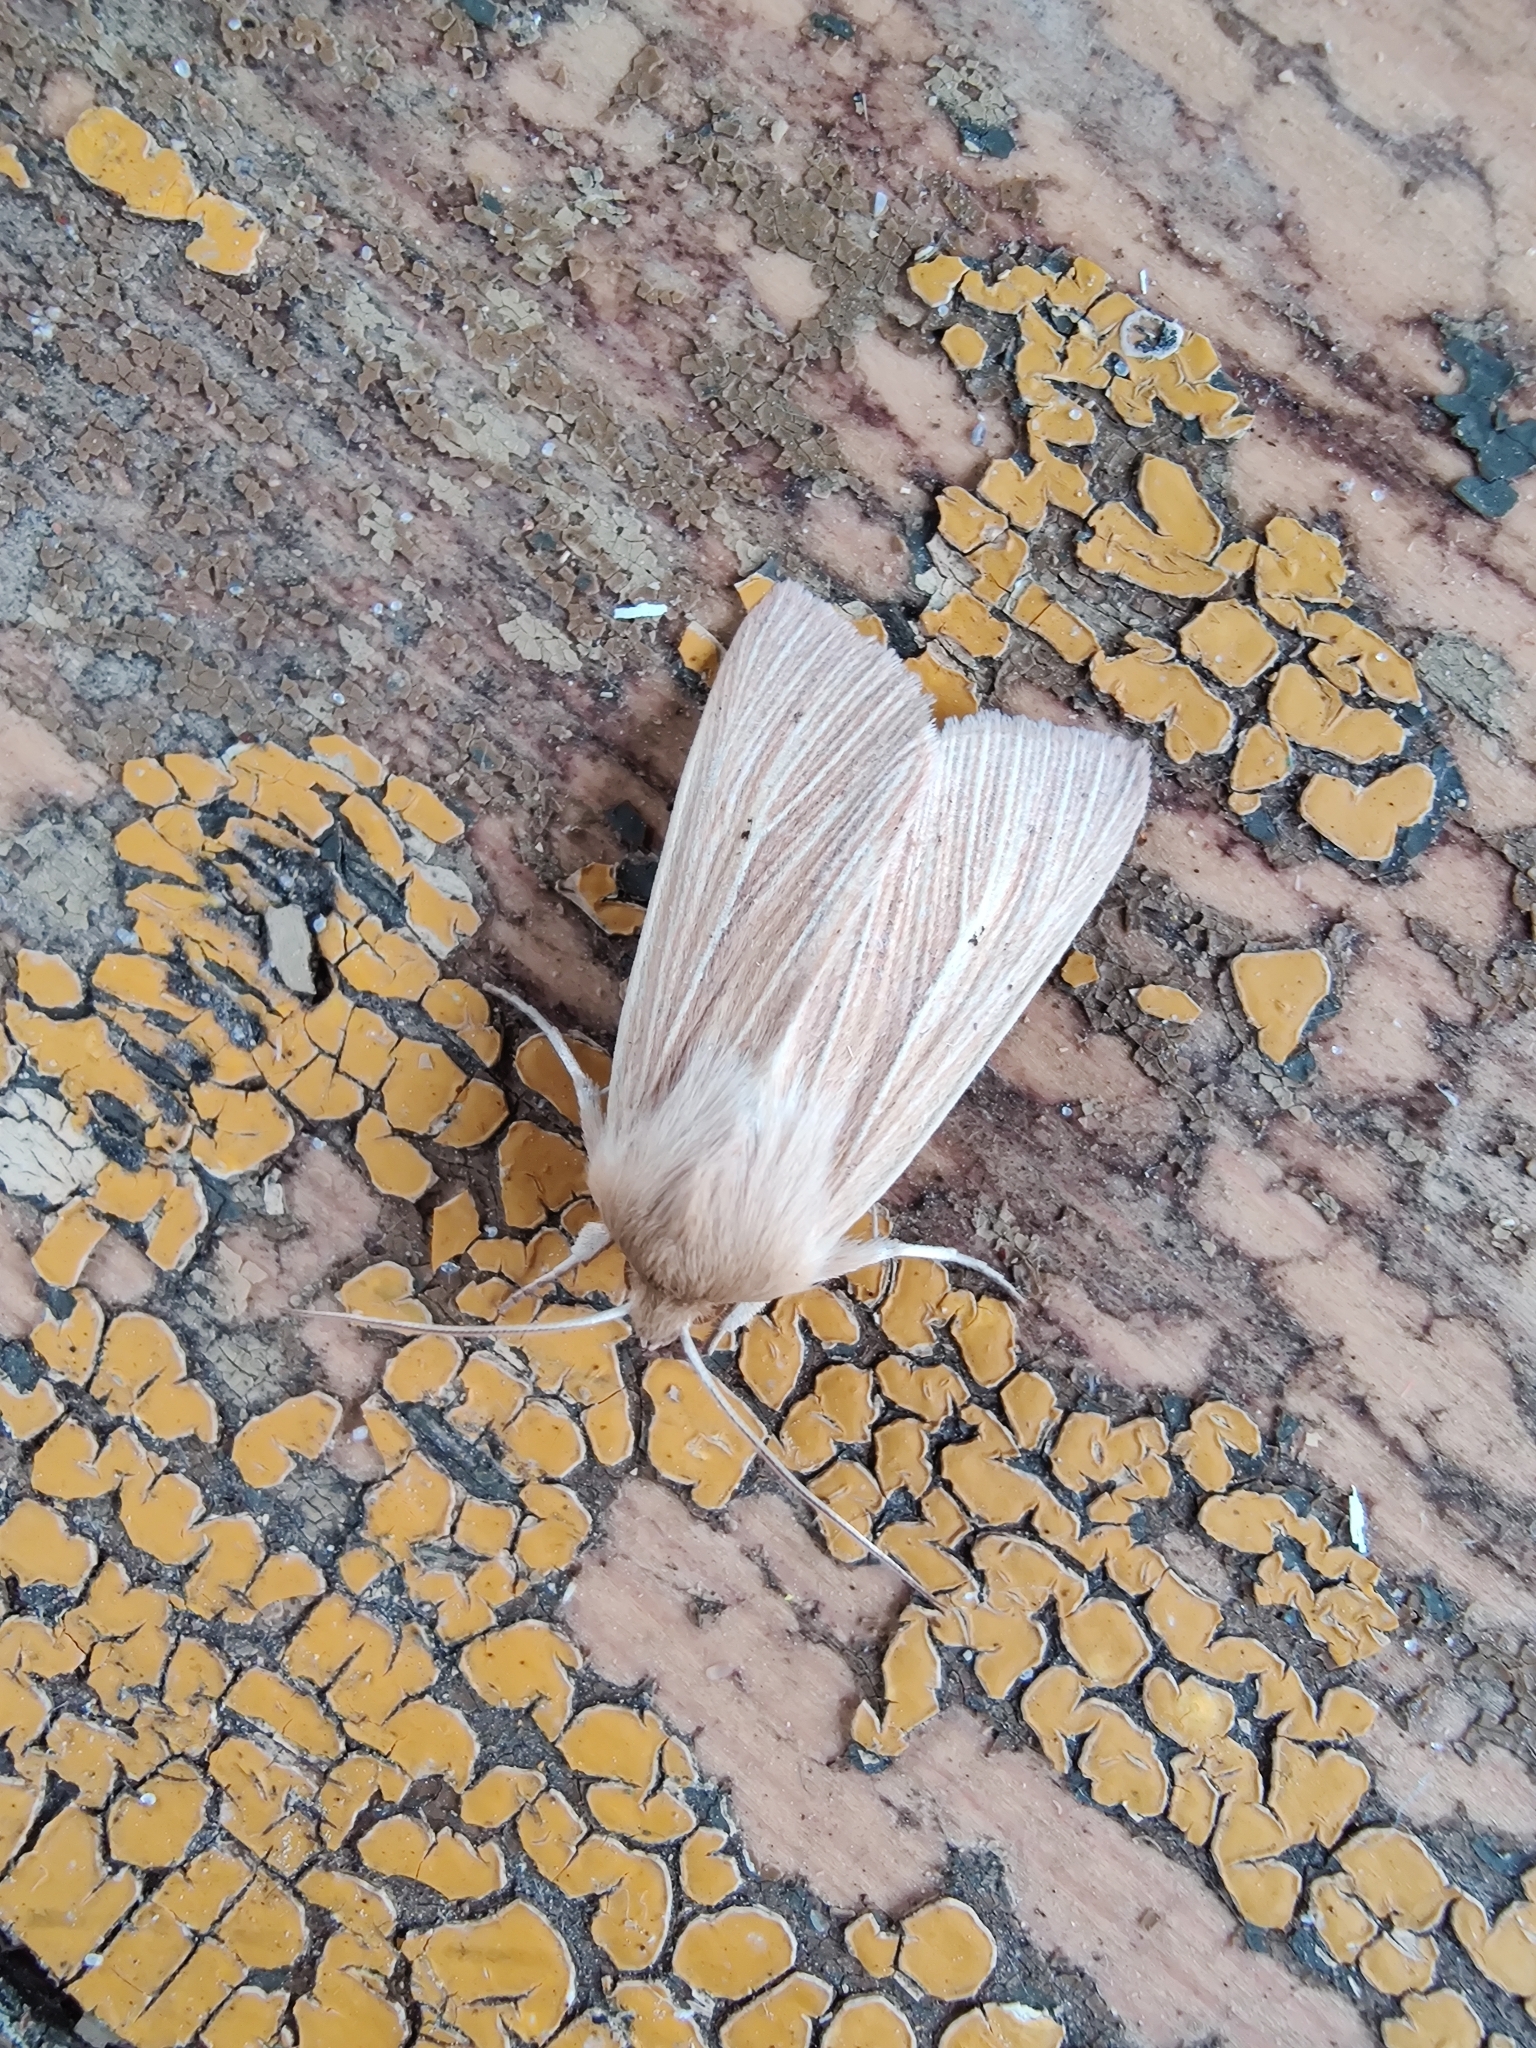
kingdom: Animalia
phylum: Arthropoda
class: Insecta
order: Lepidoptera
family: Noctuidae
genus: Mythimna
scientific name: Mythimna pallens
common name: Common wainscot
